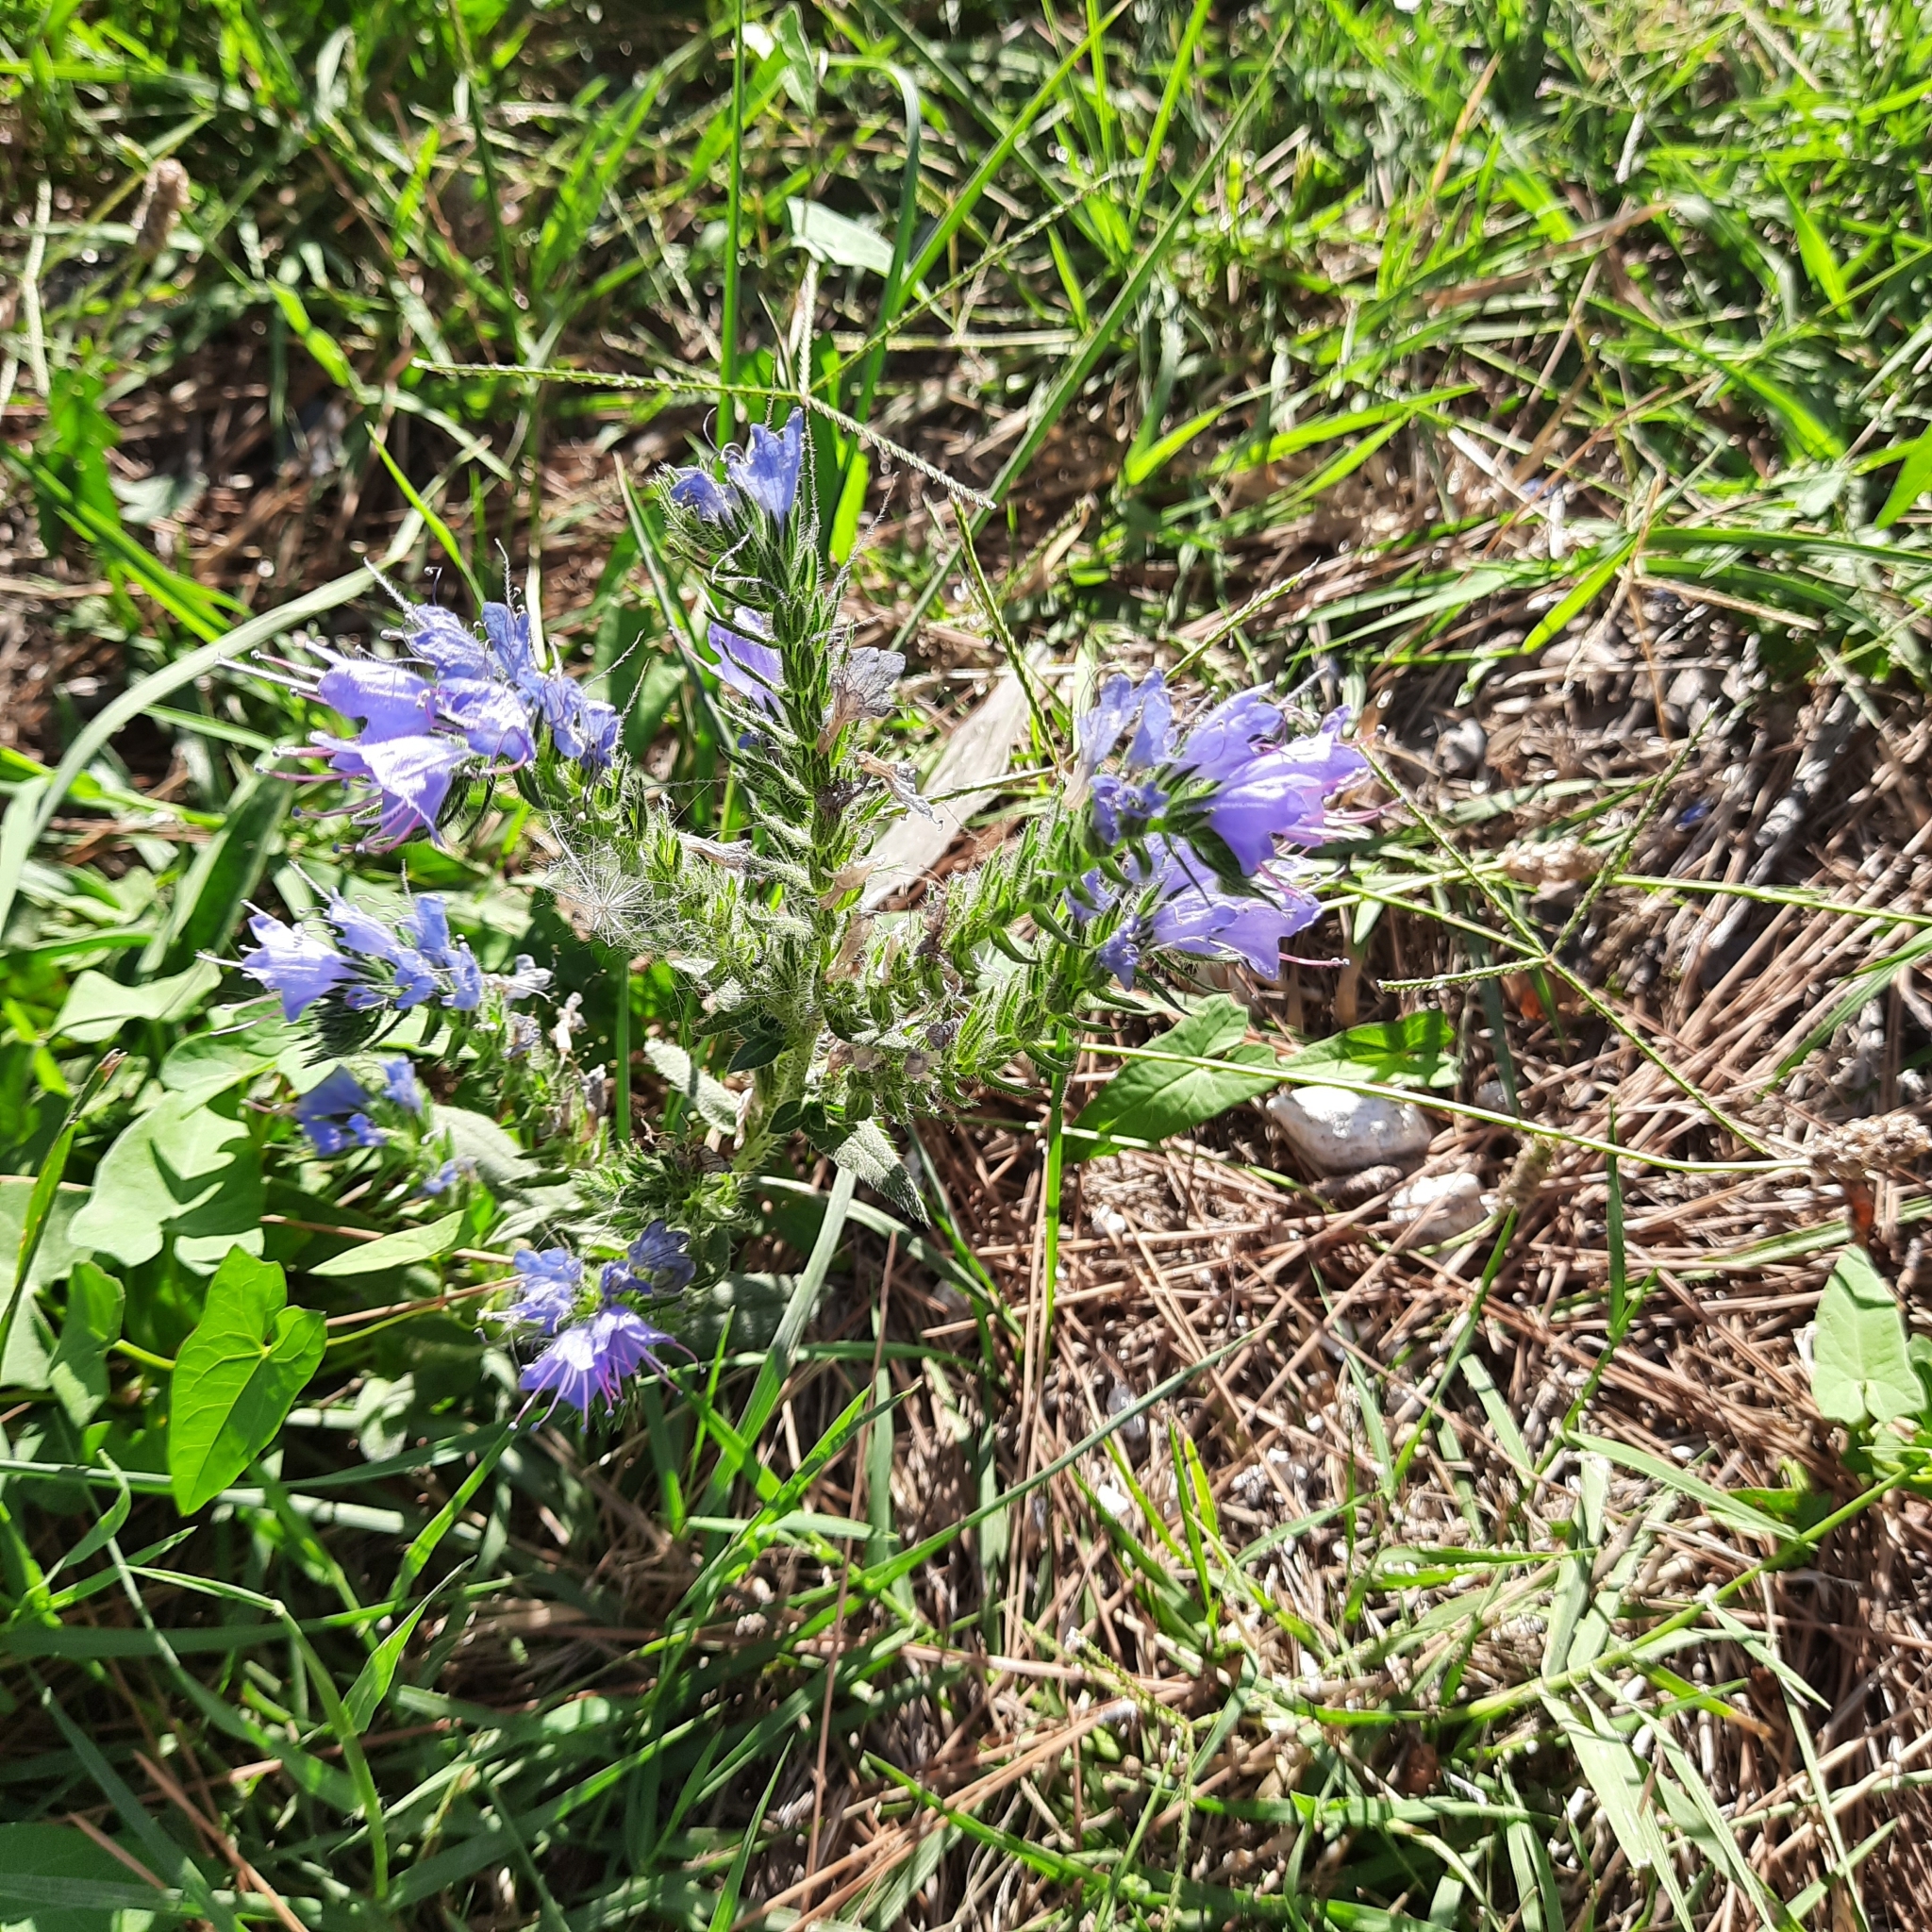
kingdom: Plantae
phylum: Tracheophyta
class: Magnoliopsida
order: Boraginales
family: Boraginaceae
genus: Echium
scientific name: Echium vulgare
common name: Common viper's bugloss
